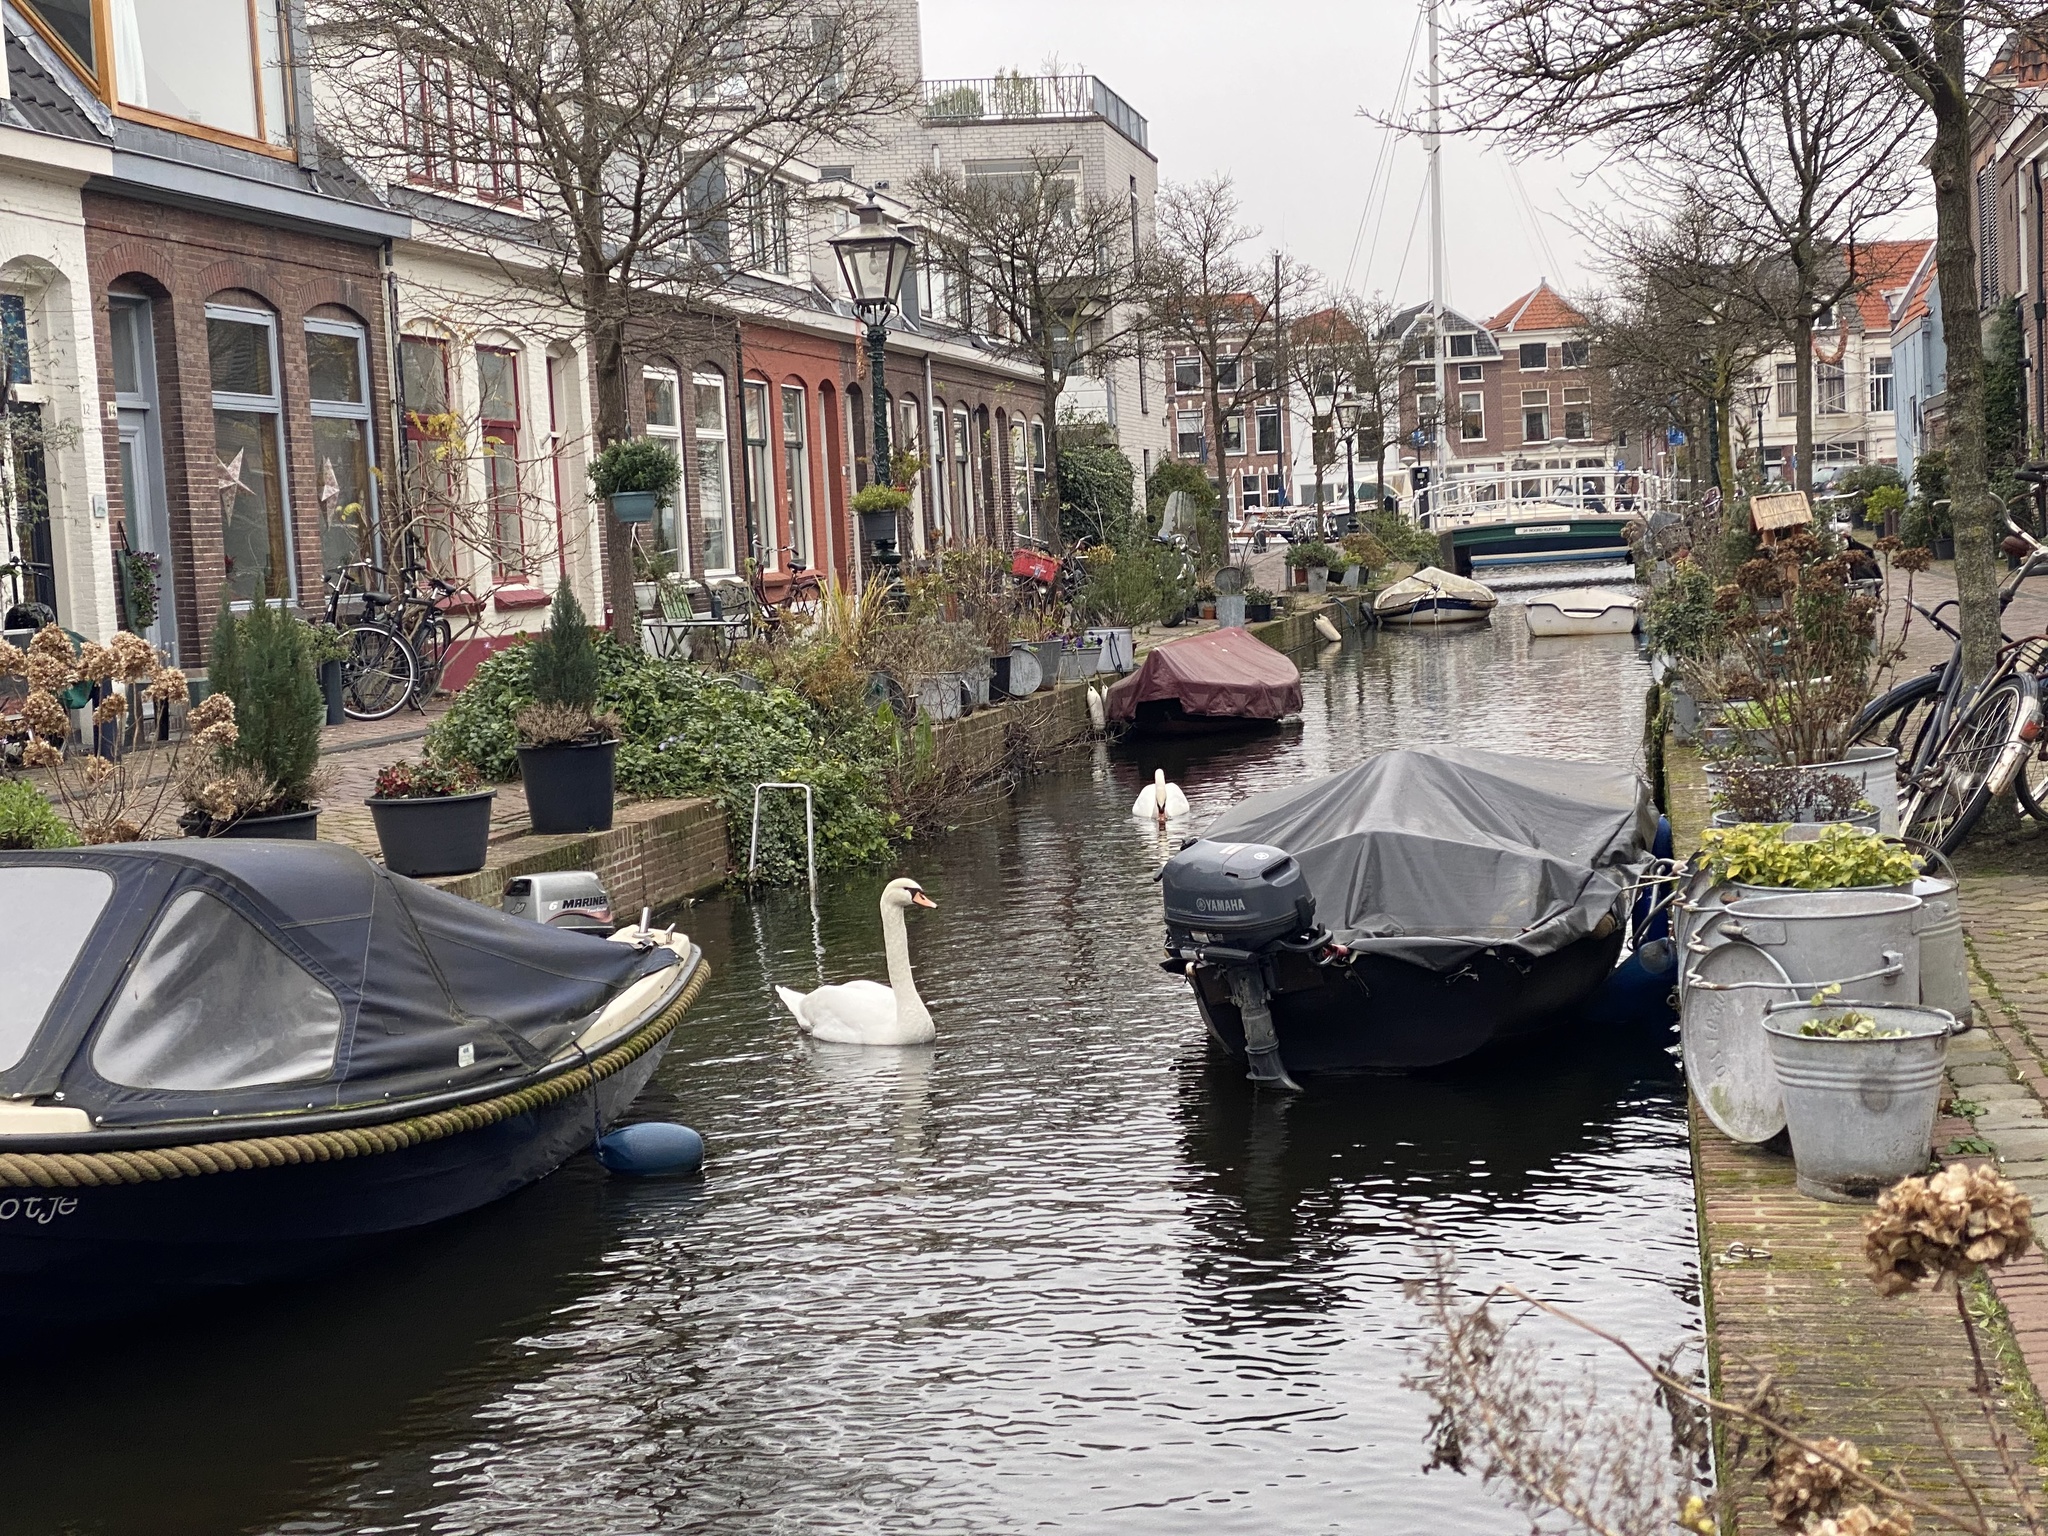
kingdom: Animalia
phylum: Chordata
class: Aves
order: Anseriformes
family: Anatidae
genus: Cygnus
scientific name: Cygnus olor
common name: Mute swan
